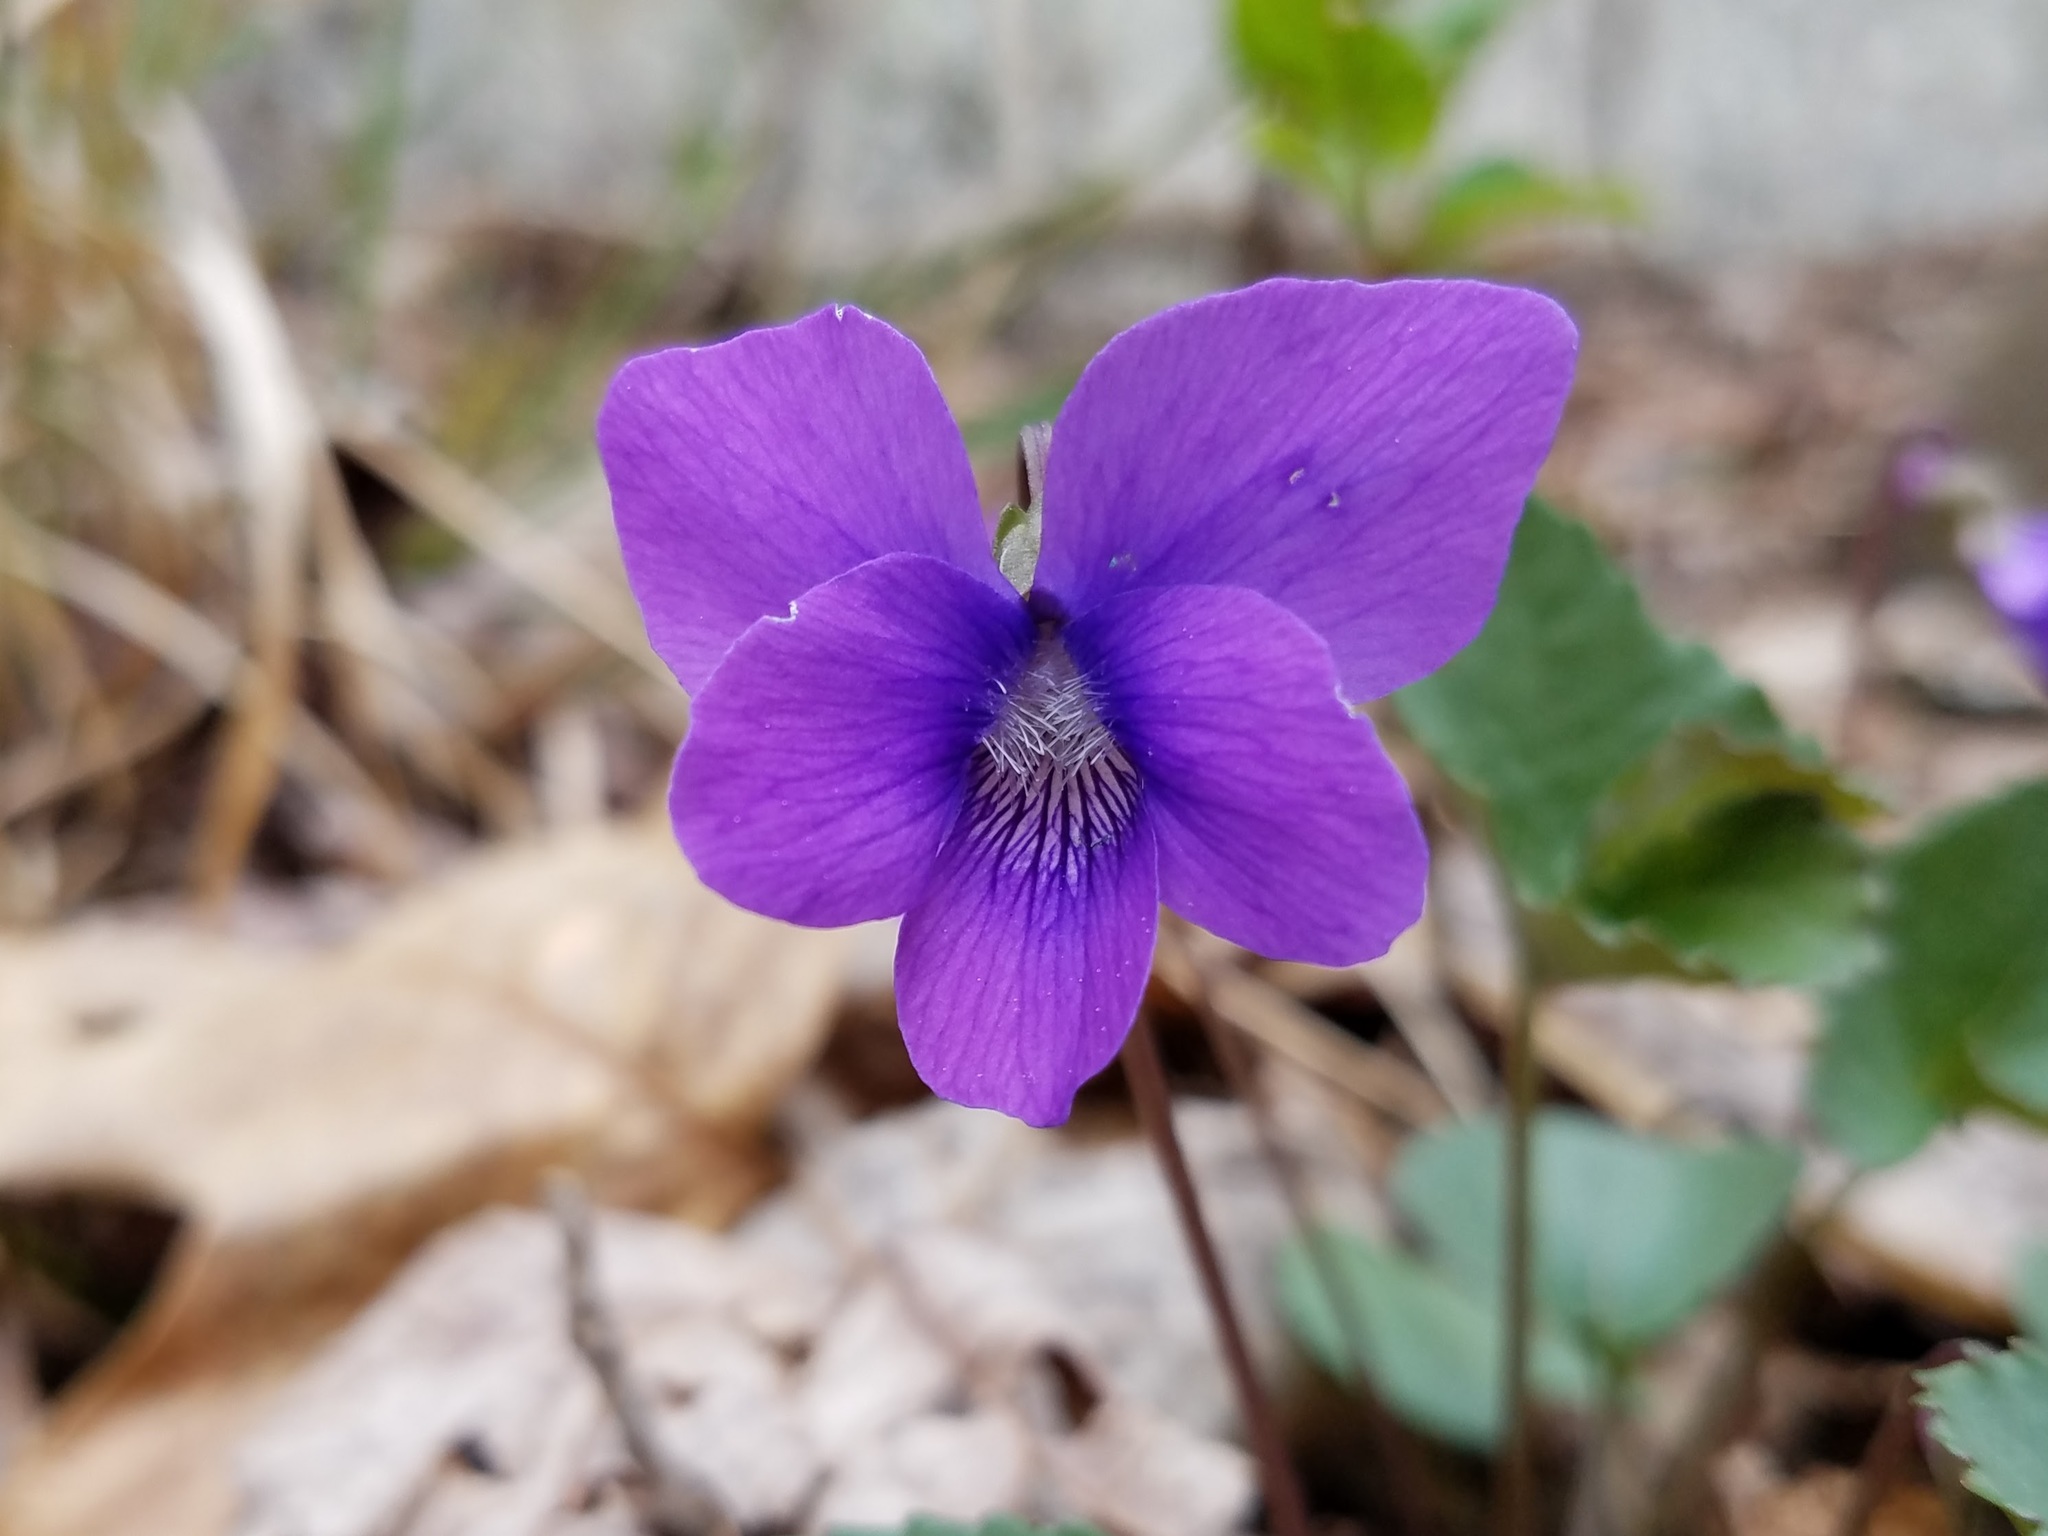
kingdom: Plantae
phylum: Tracheophyta
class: Magnoliopsida
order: Malpighiales
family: Violaceae
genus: Viola
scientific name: Viola sororia
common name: Dooryard violet
